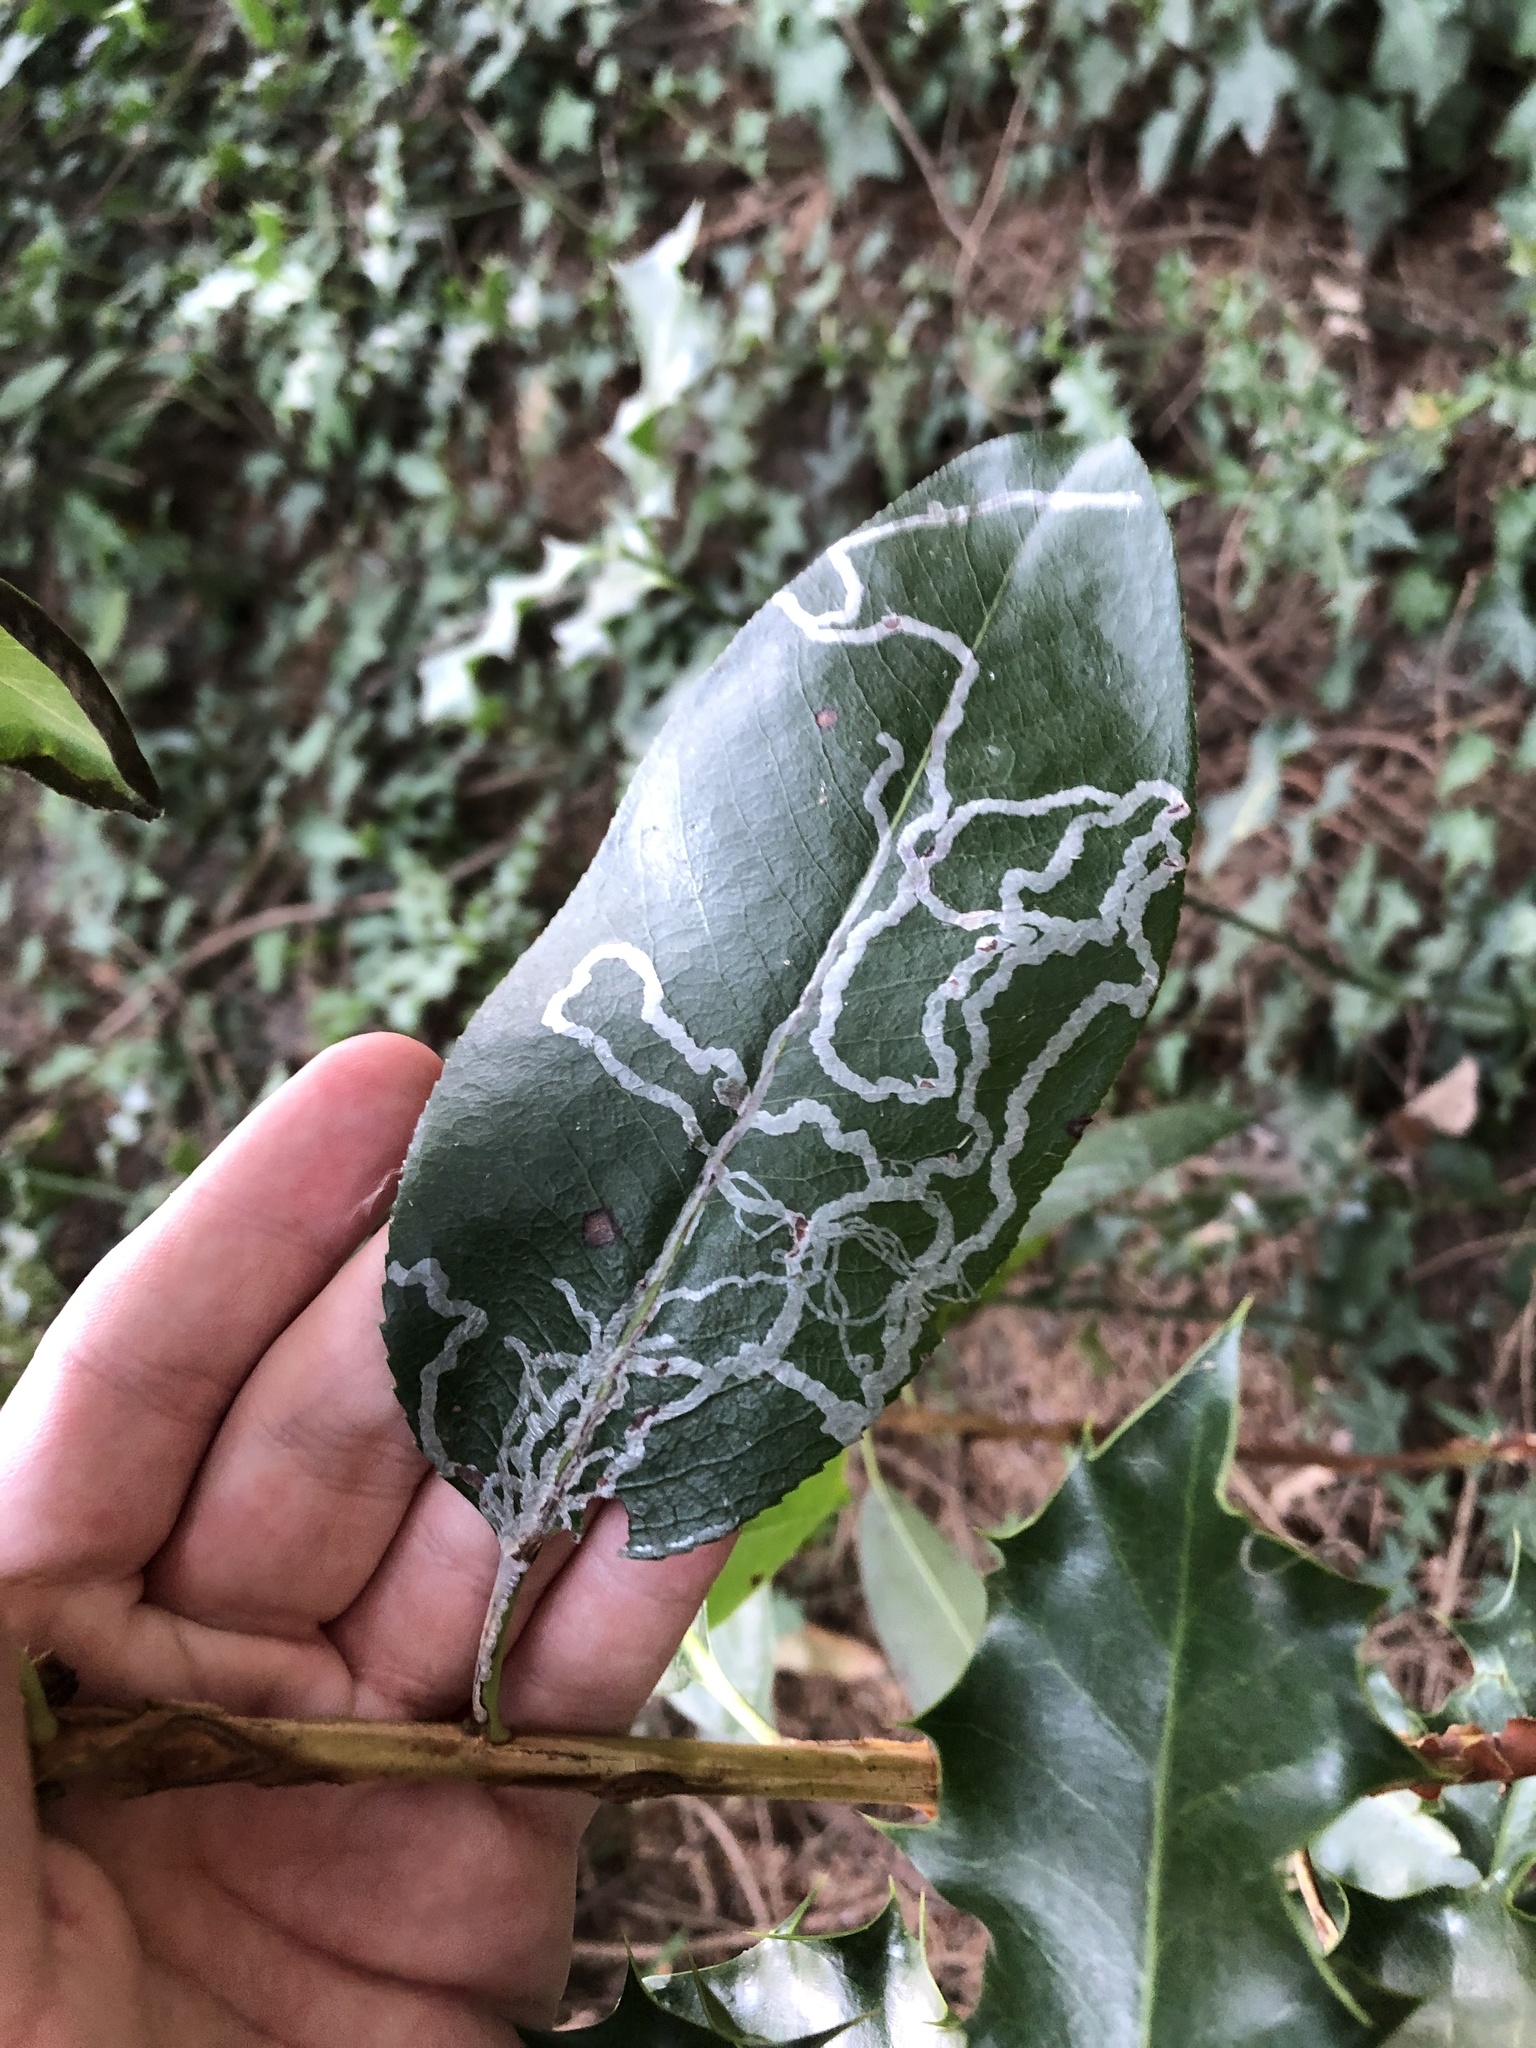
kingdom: Animalia
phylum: Arthropoda
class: Insecta
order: Lepidoptera
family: Gracillariidae
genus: Marmara
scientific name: Marmara arbutiella
